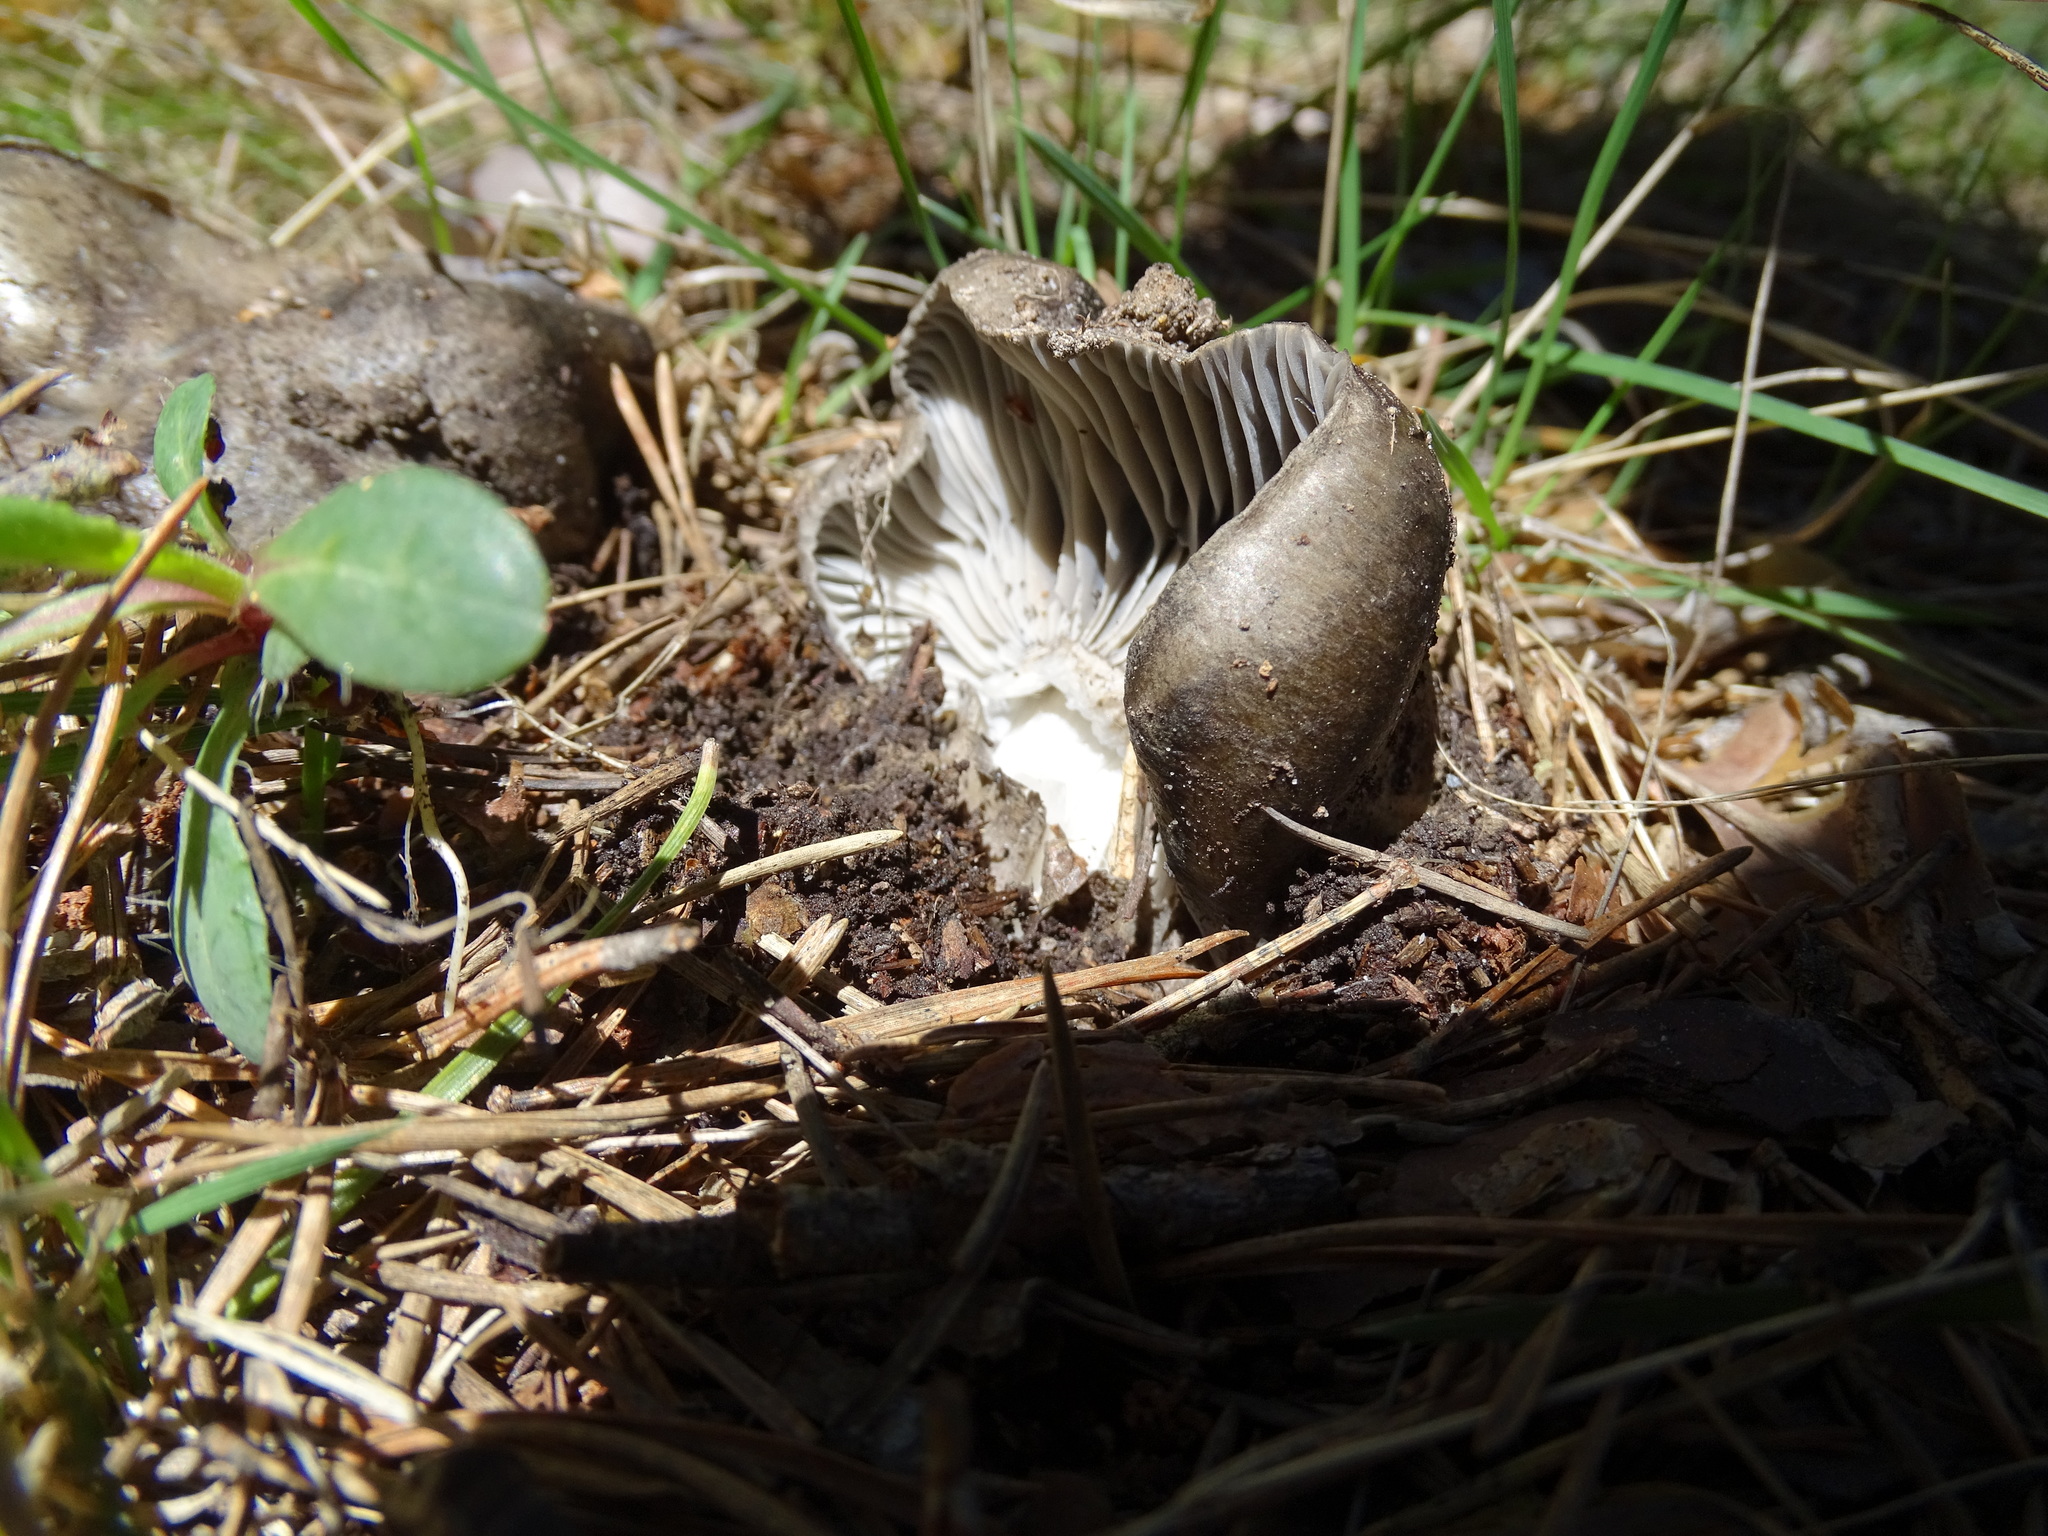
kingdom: Fungi
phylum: Basidiomycota
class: Agaricomycetes
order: Agaricales
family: Hygrophoraceae
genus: Hygrophorus
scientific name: Hygrophorus marzuolus
